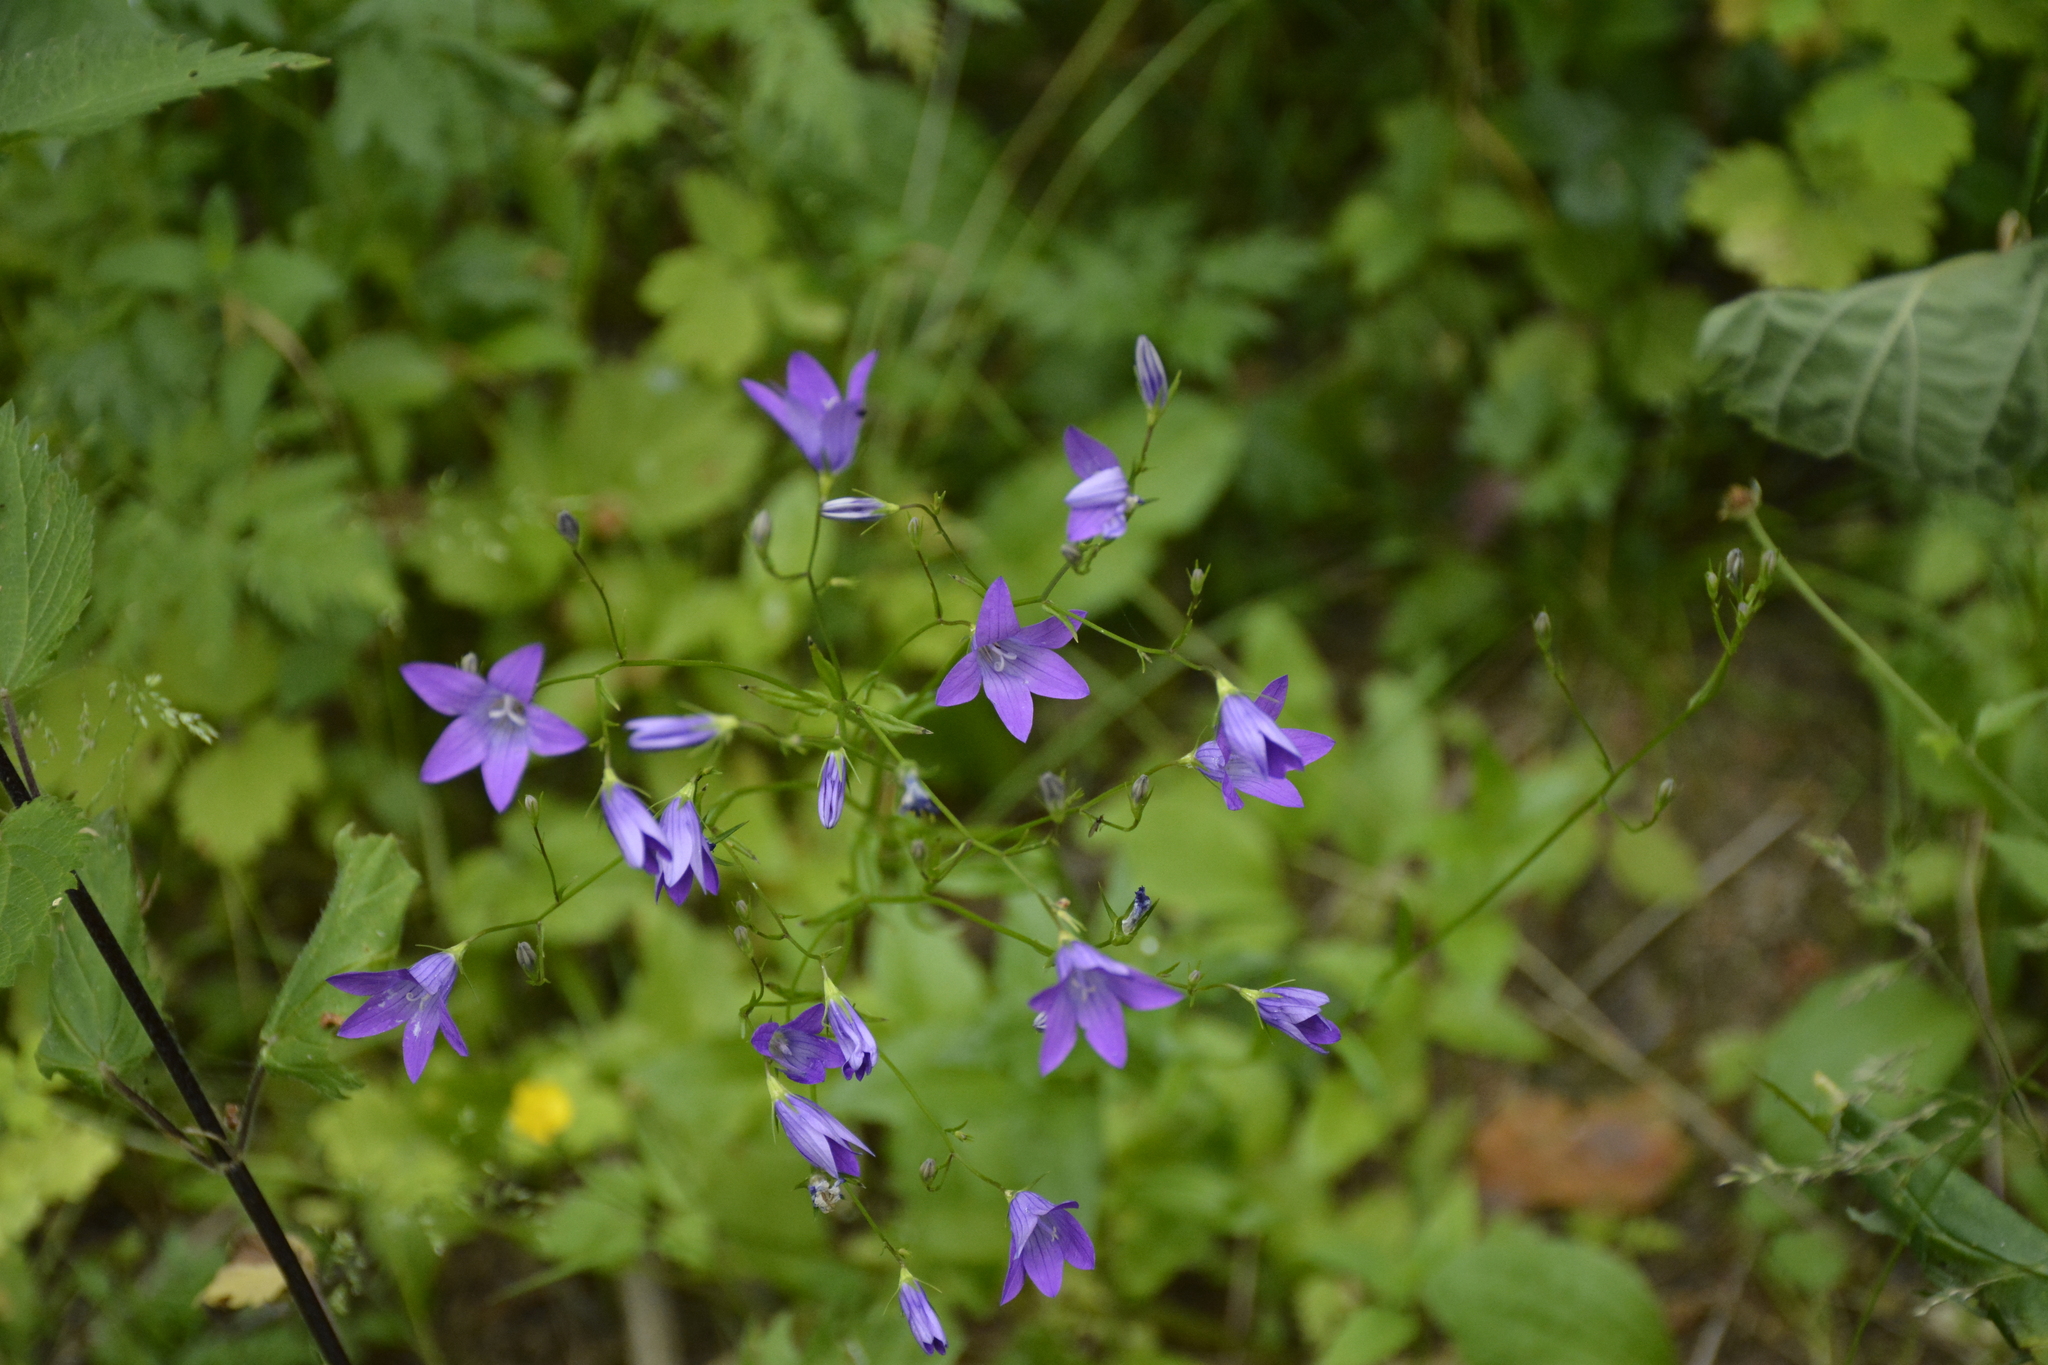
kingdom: Plantae
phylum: Tracheophyta
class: Magnoliopsida
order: Asterales
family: Campanulaceae
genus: Campanula
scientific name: Campanula patula
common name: Spreading bellflower
